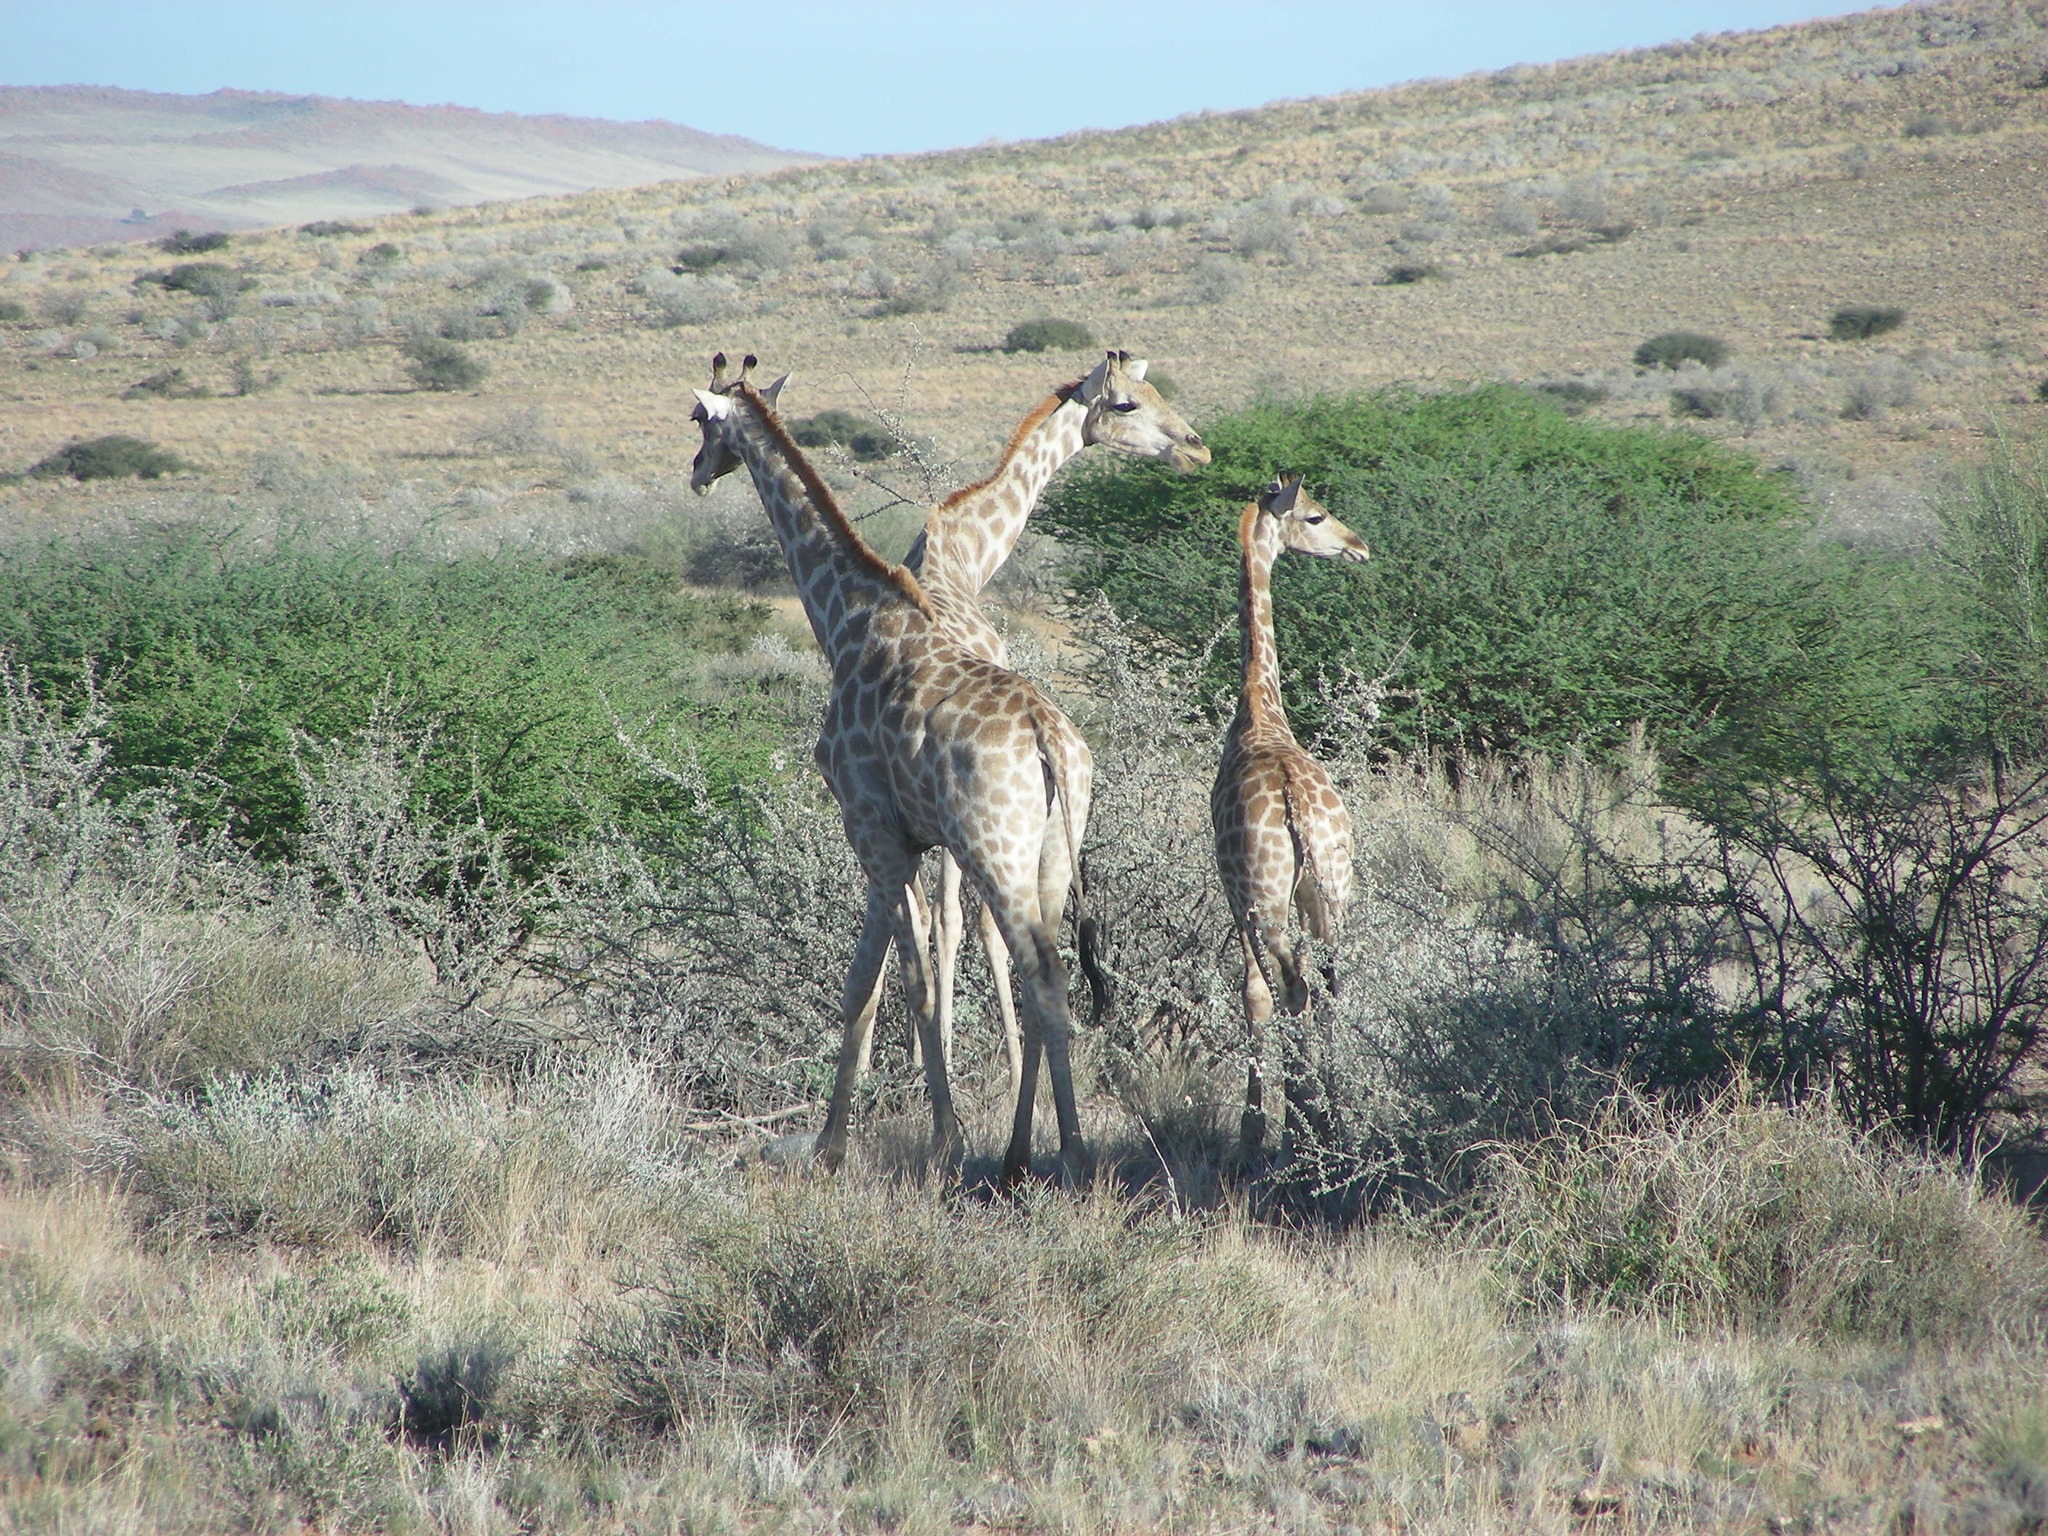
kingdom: Animalia
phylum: Chordata
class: Mammalia
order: Artiodactyla
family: Giraffidae
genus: Giraffa
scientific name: Giraffa giraffa
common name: Southern giraffe
